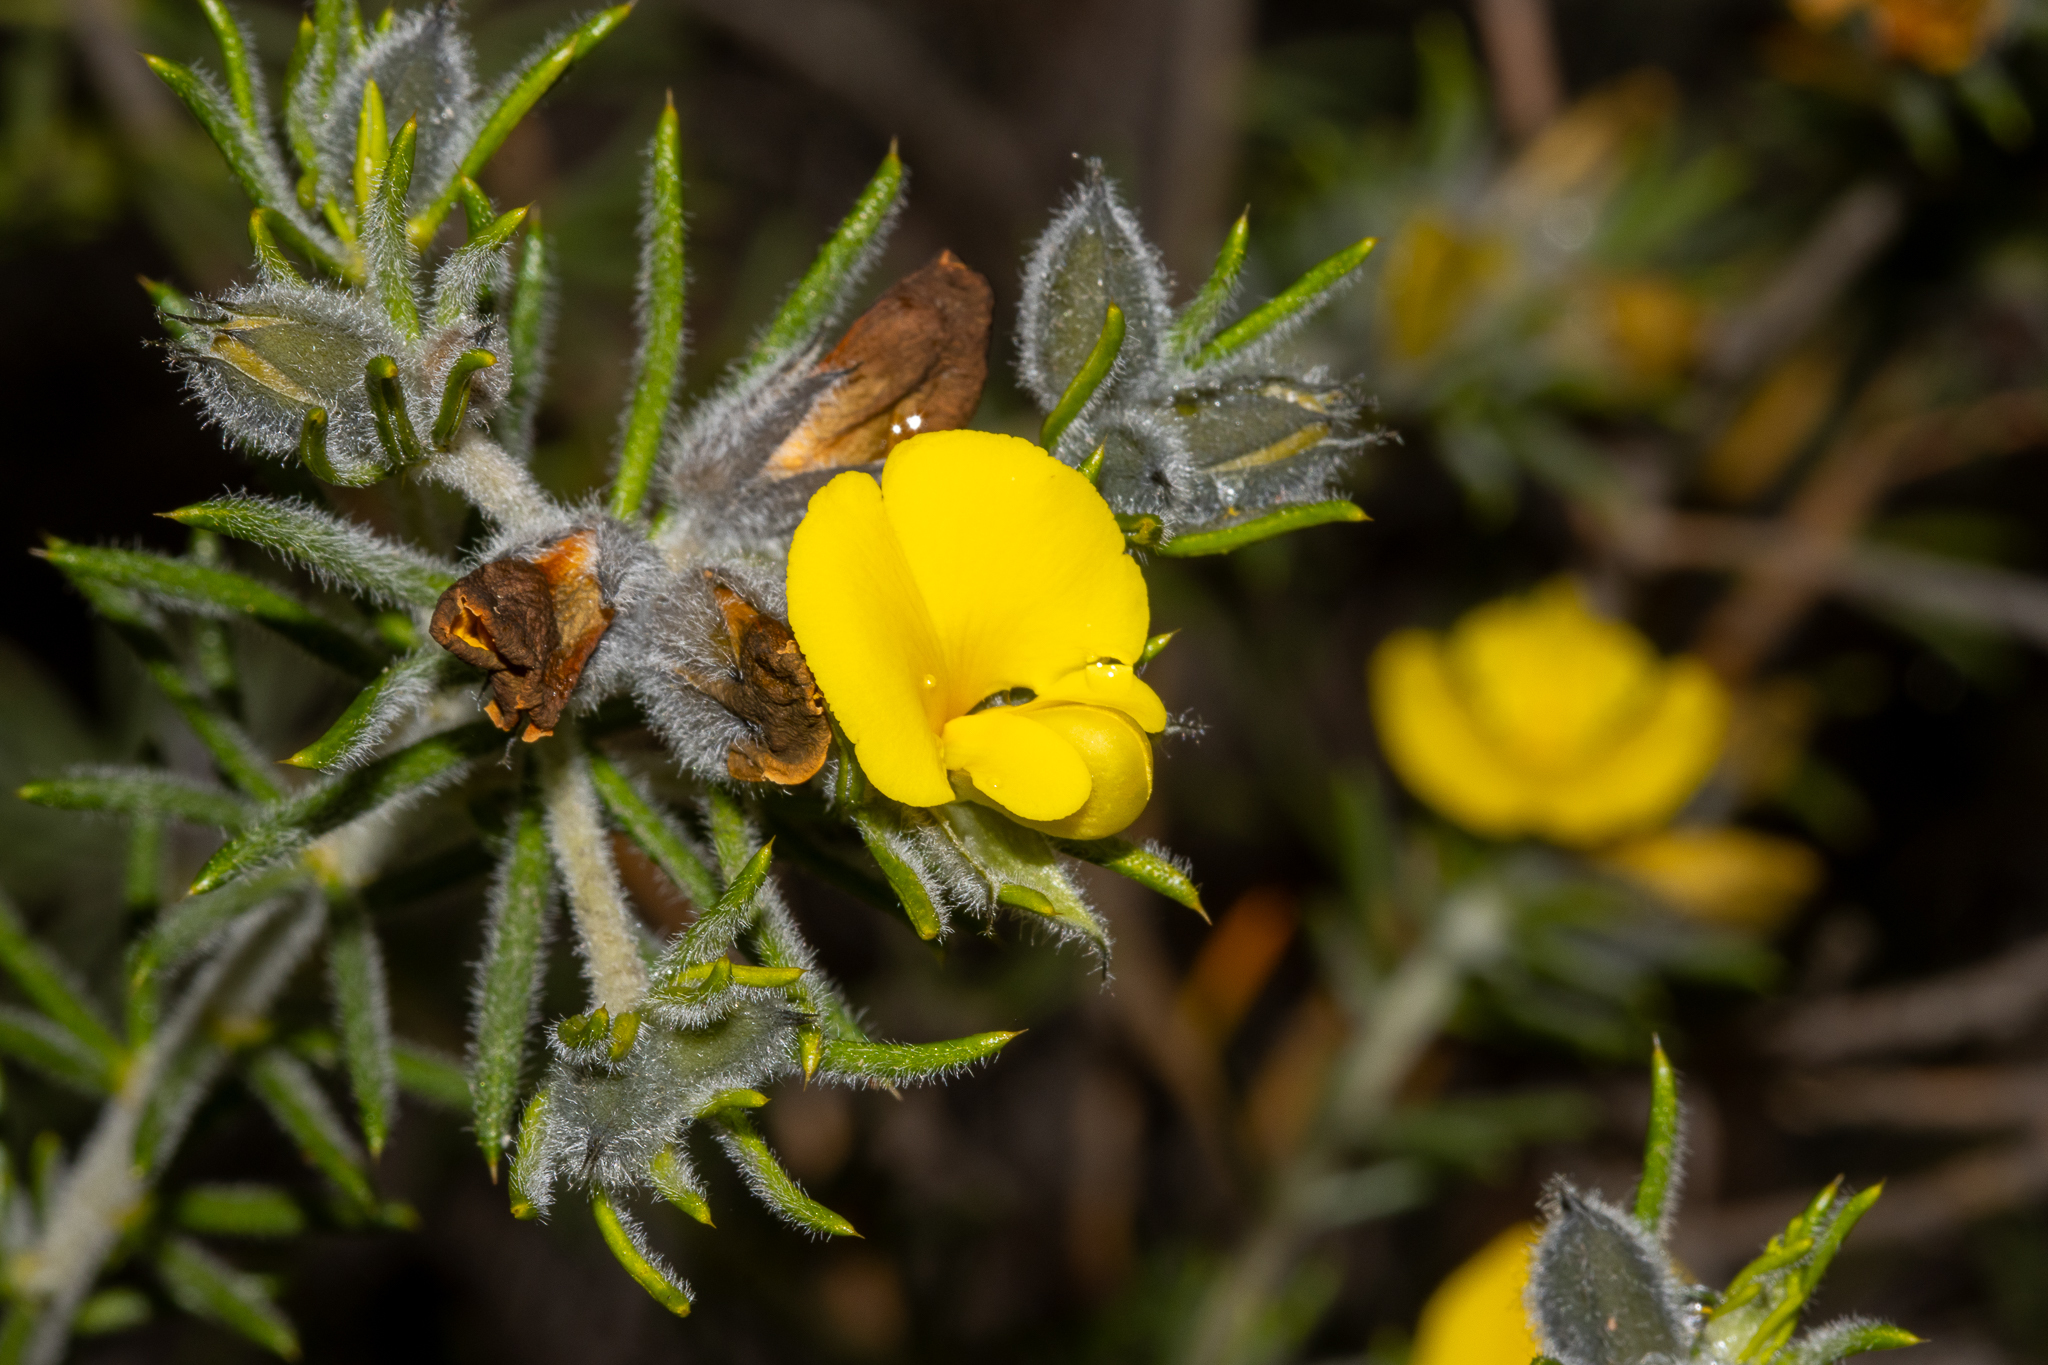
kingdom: Plantae
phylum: Tracheophyta
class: Magnoliopsida
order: Fabales
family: Fabaceae
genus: Gompholobium
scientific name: Gompholobium aristatum
